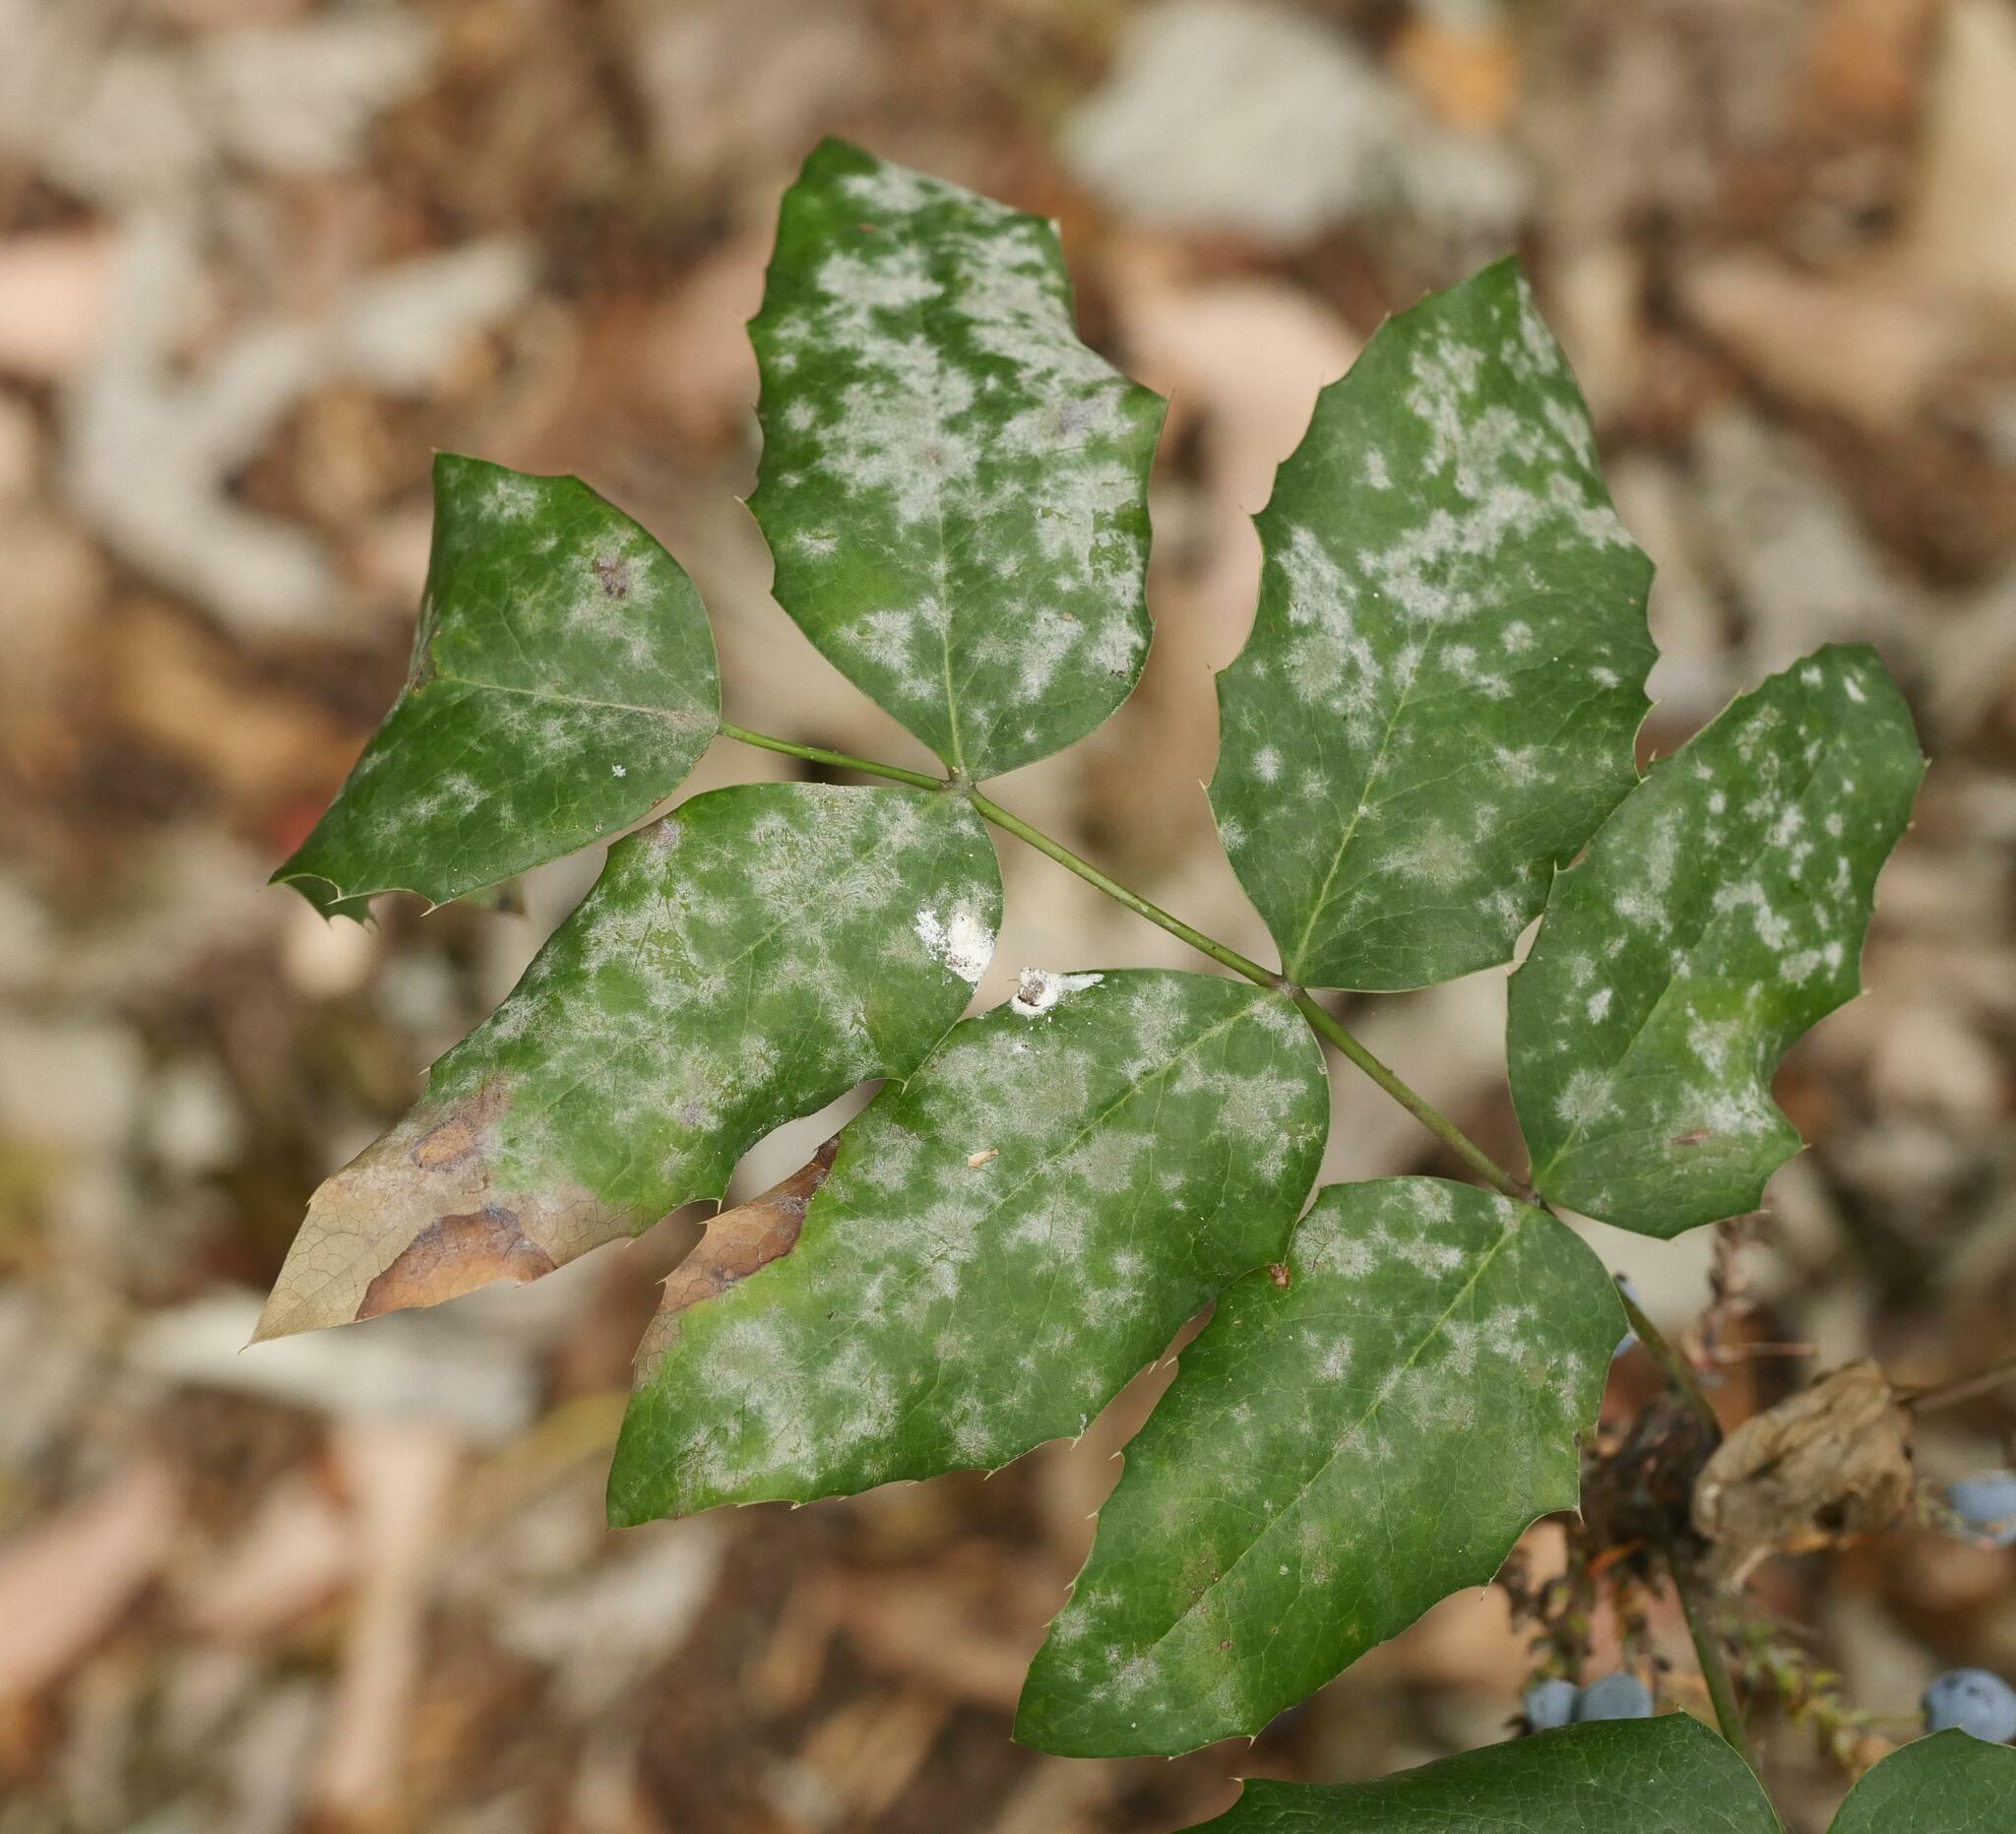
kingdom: Fungi
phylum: Ascomycota
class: Leotiomycetes
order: Helotiales
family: Erysiphaceae
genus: Erysiphe
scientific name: Erysiphe berberidis
